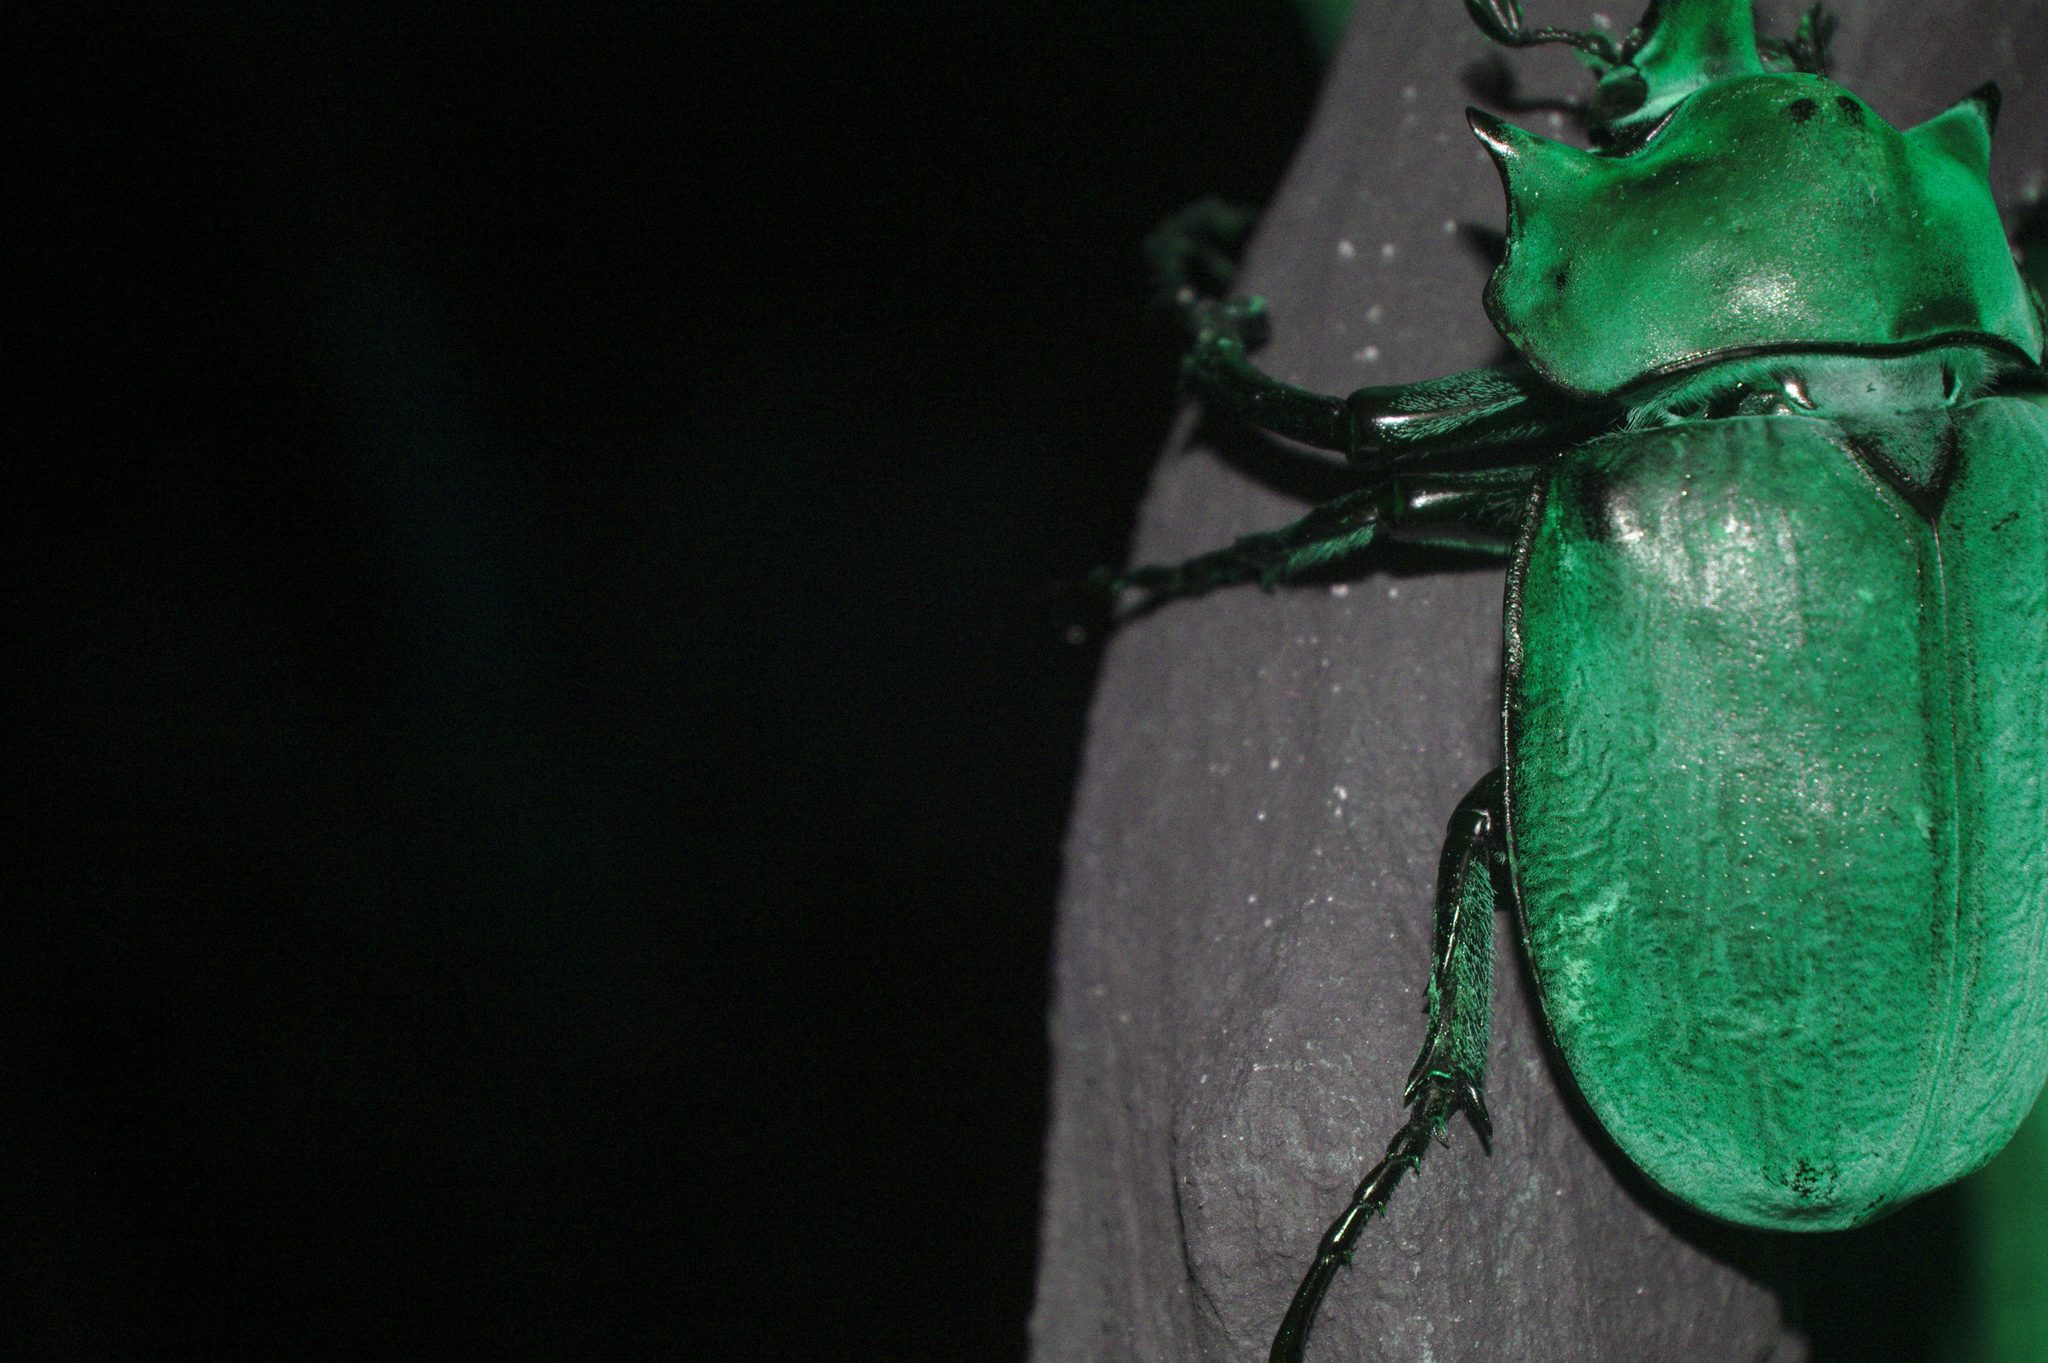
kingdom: Animalia
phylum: Arthropoda
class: Insecta
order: Coleoptera
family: Scarabaeidae
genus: Megasoma
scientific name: Megasoma elephas
